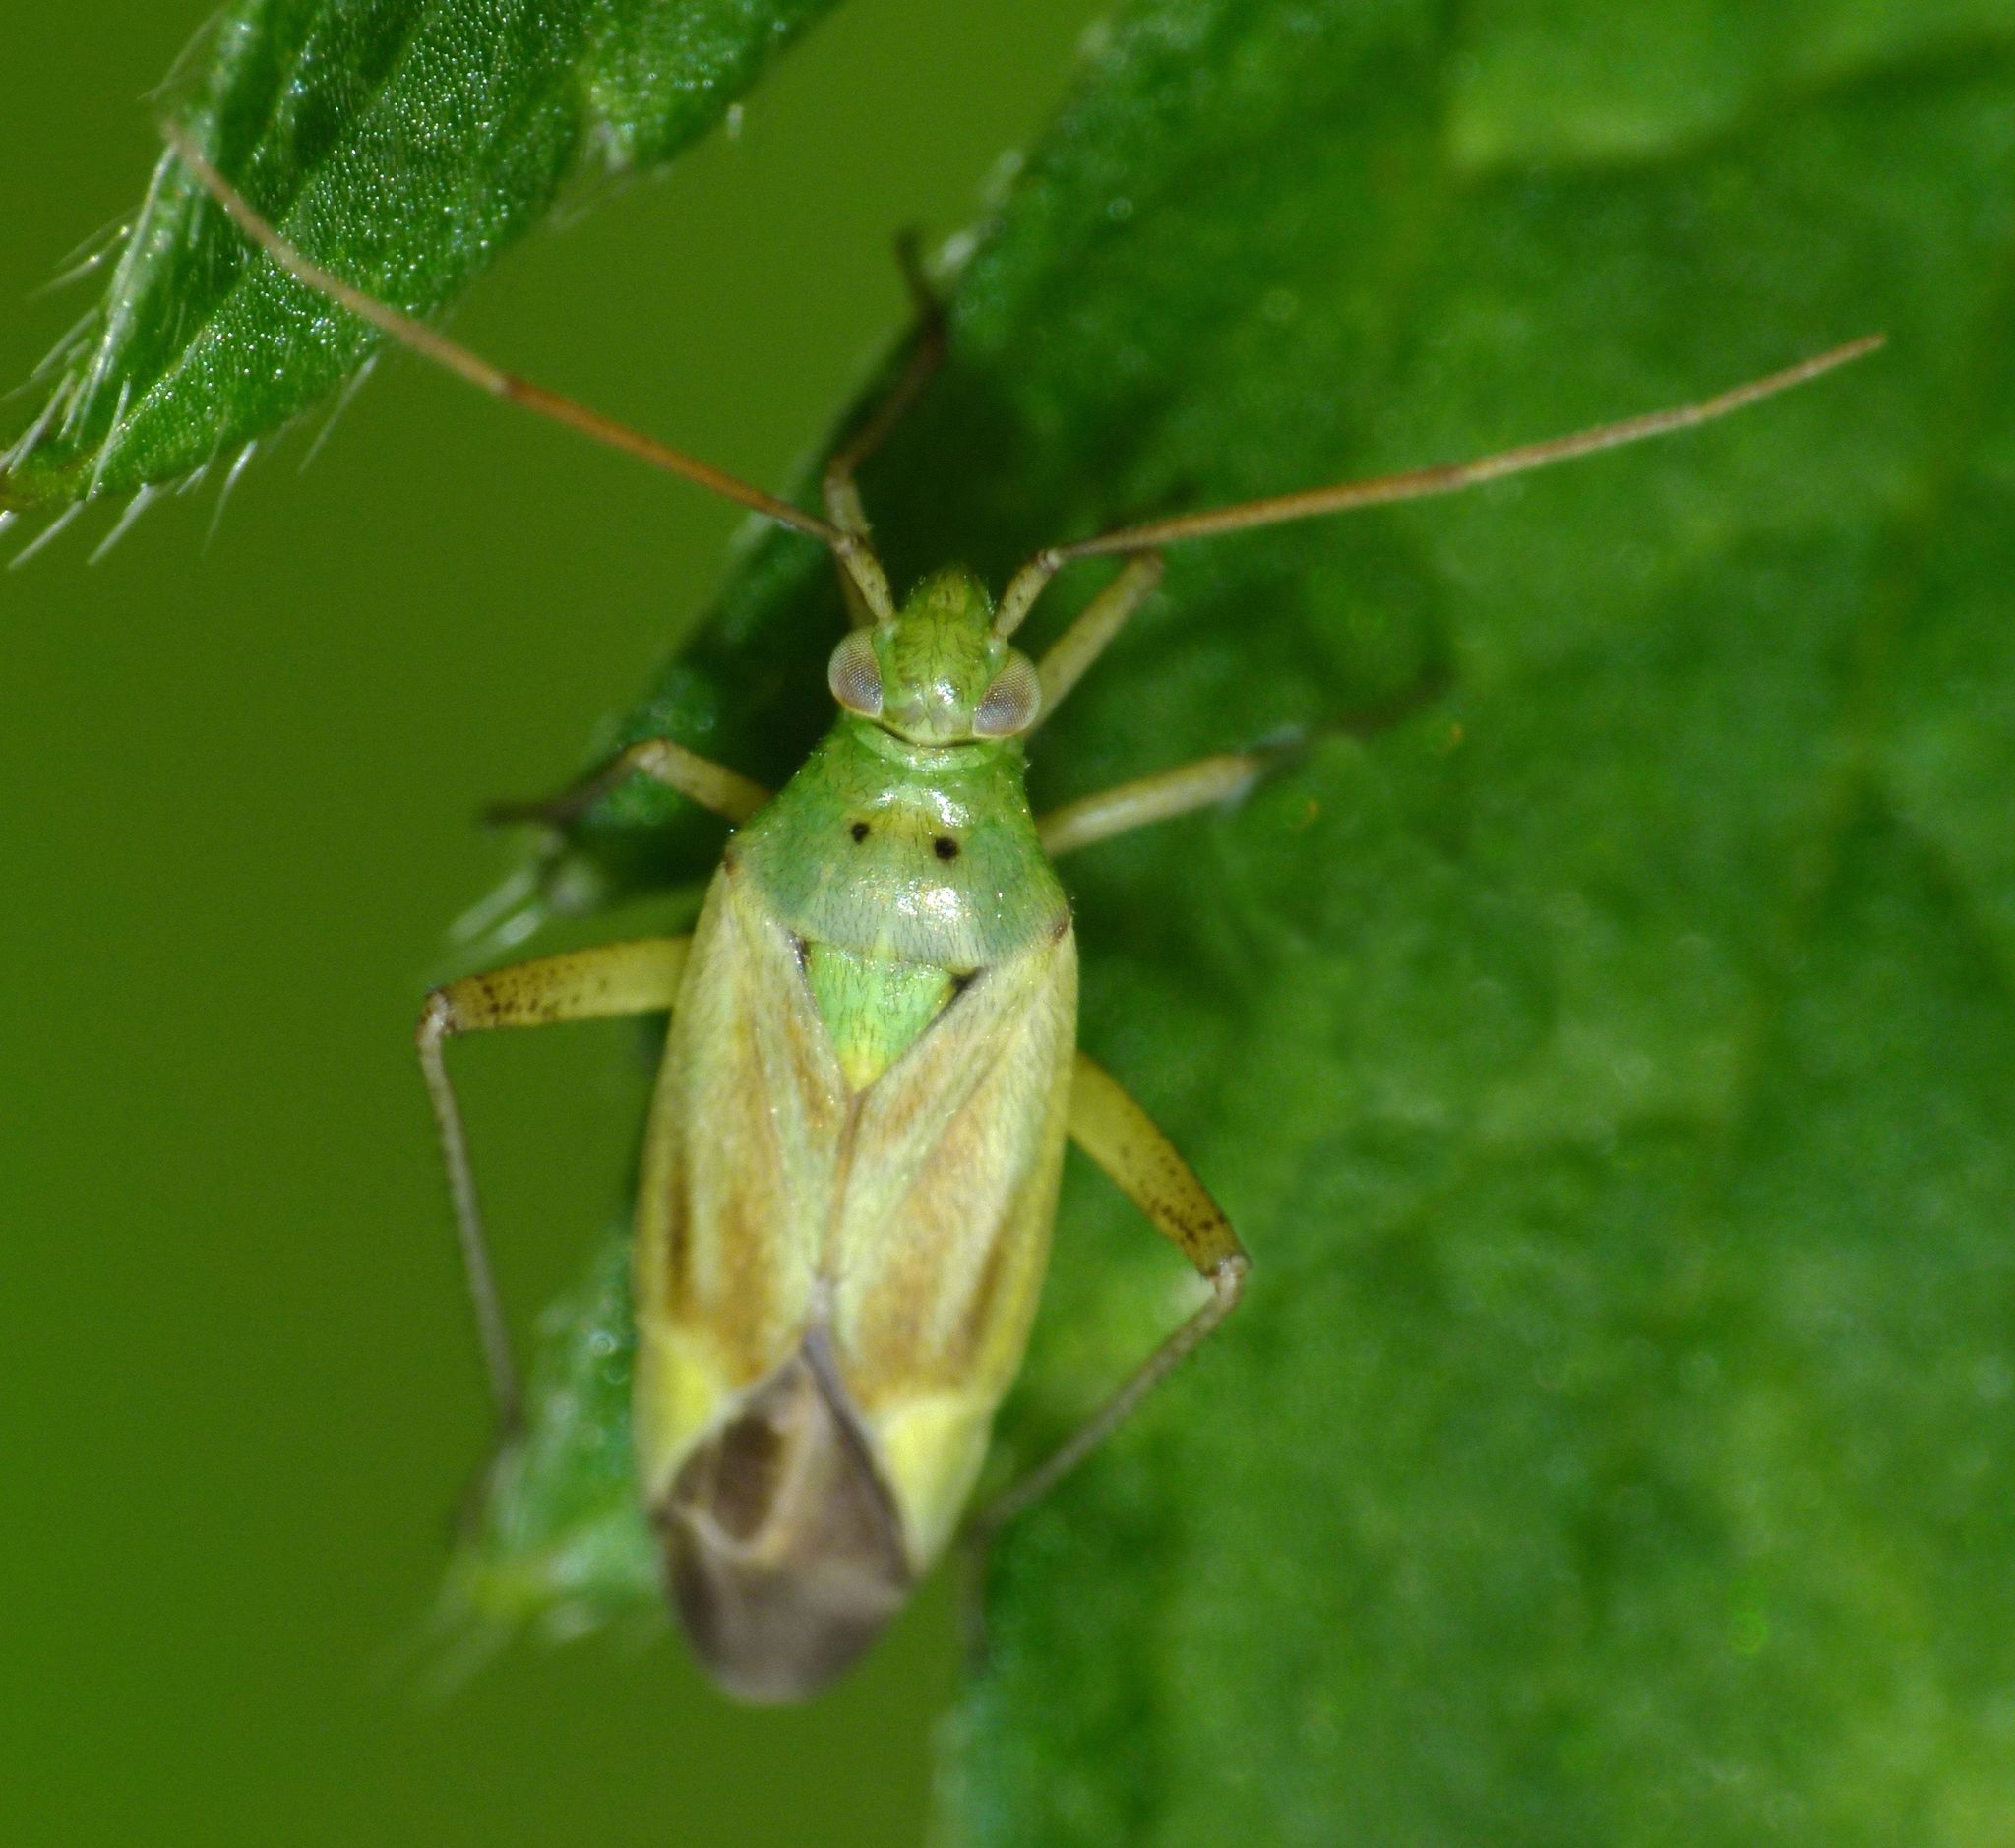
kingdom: Animalia
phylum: Arthropoda
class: Insecta
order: Hemiptera
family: Miridae
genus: Closterotomus
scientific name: Closterotomus norvegicus
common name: Plant bug
